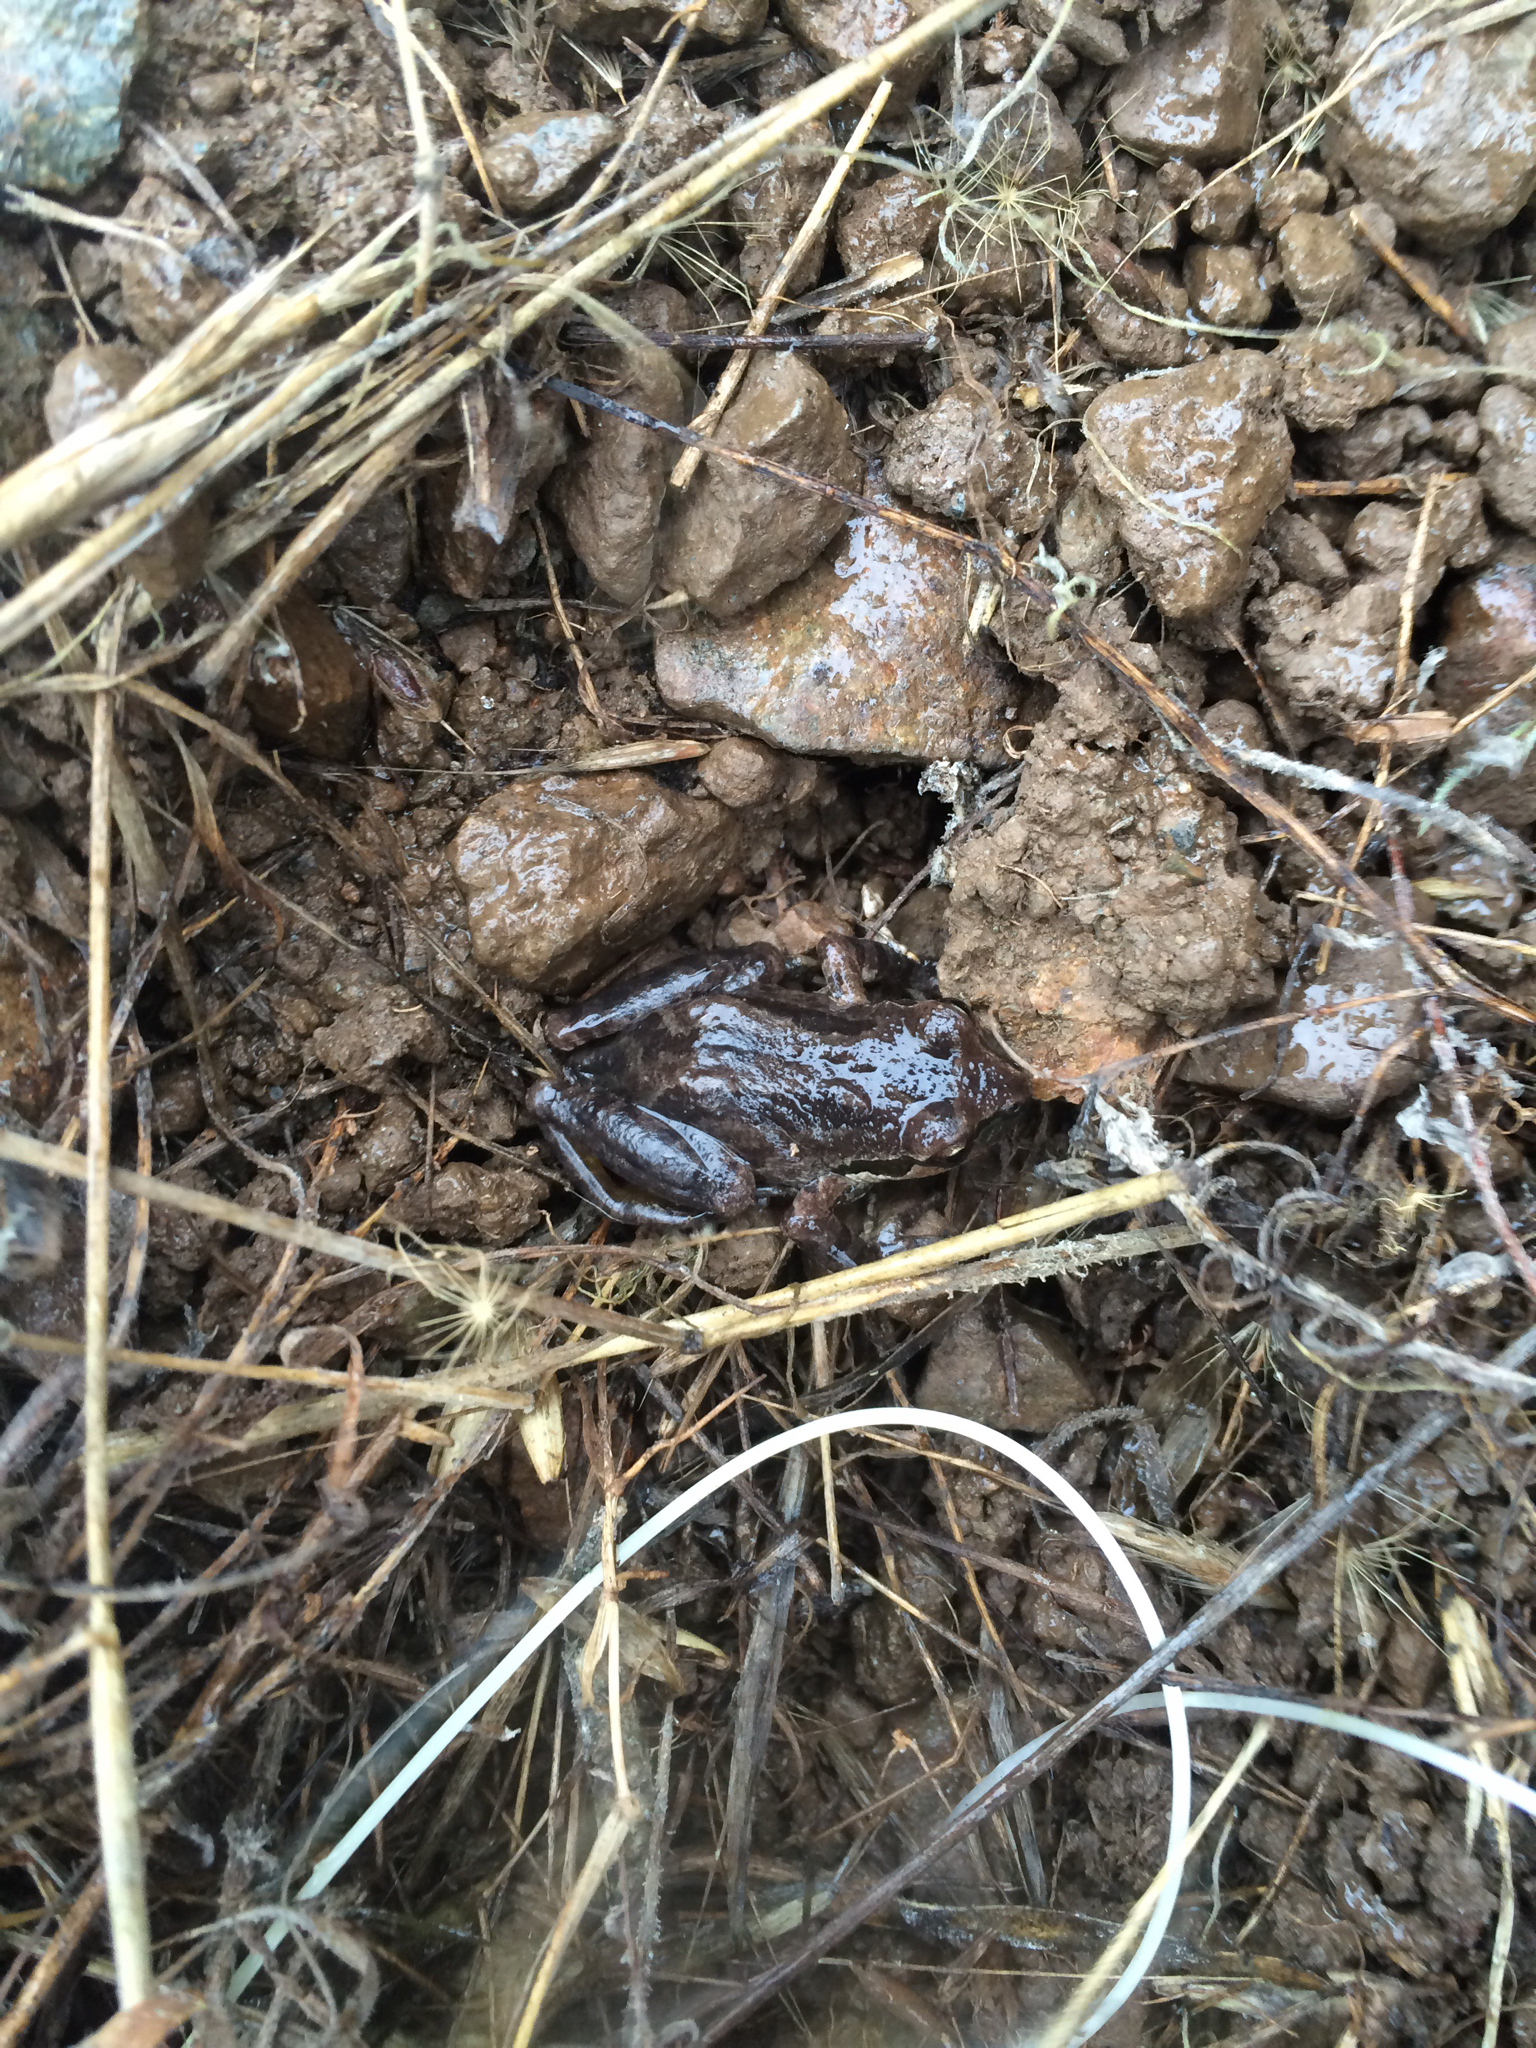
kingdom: Animalia
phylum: Chordata
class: Amphibia
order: Anura
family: Hylidae
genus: Pseudacris
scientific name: Pseudacris regilla
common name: Pacific chorus frog
